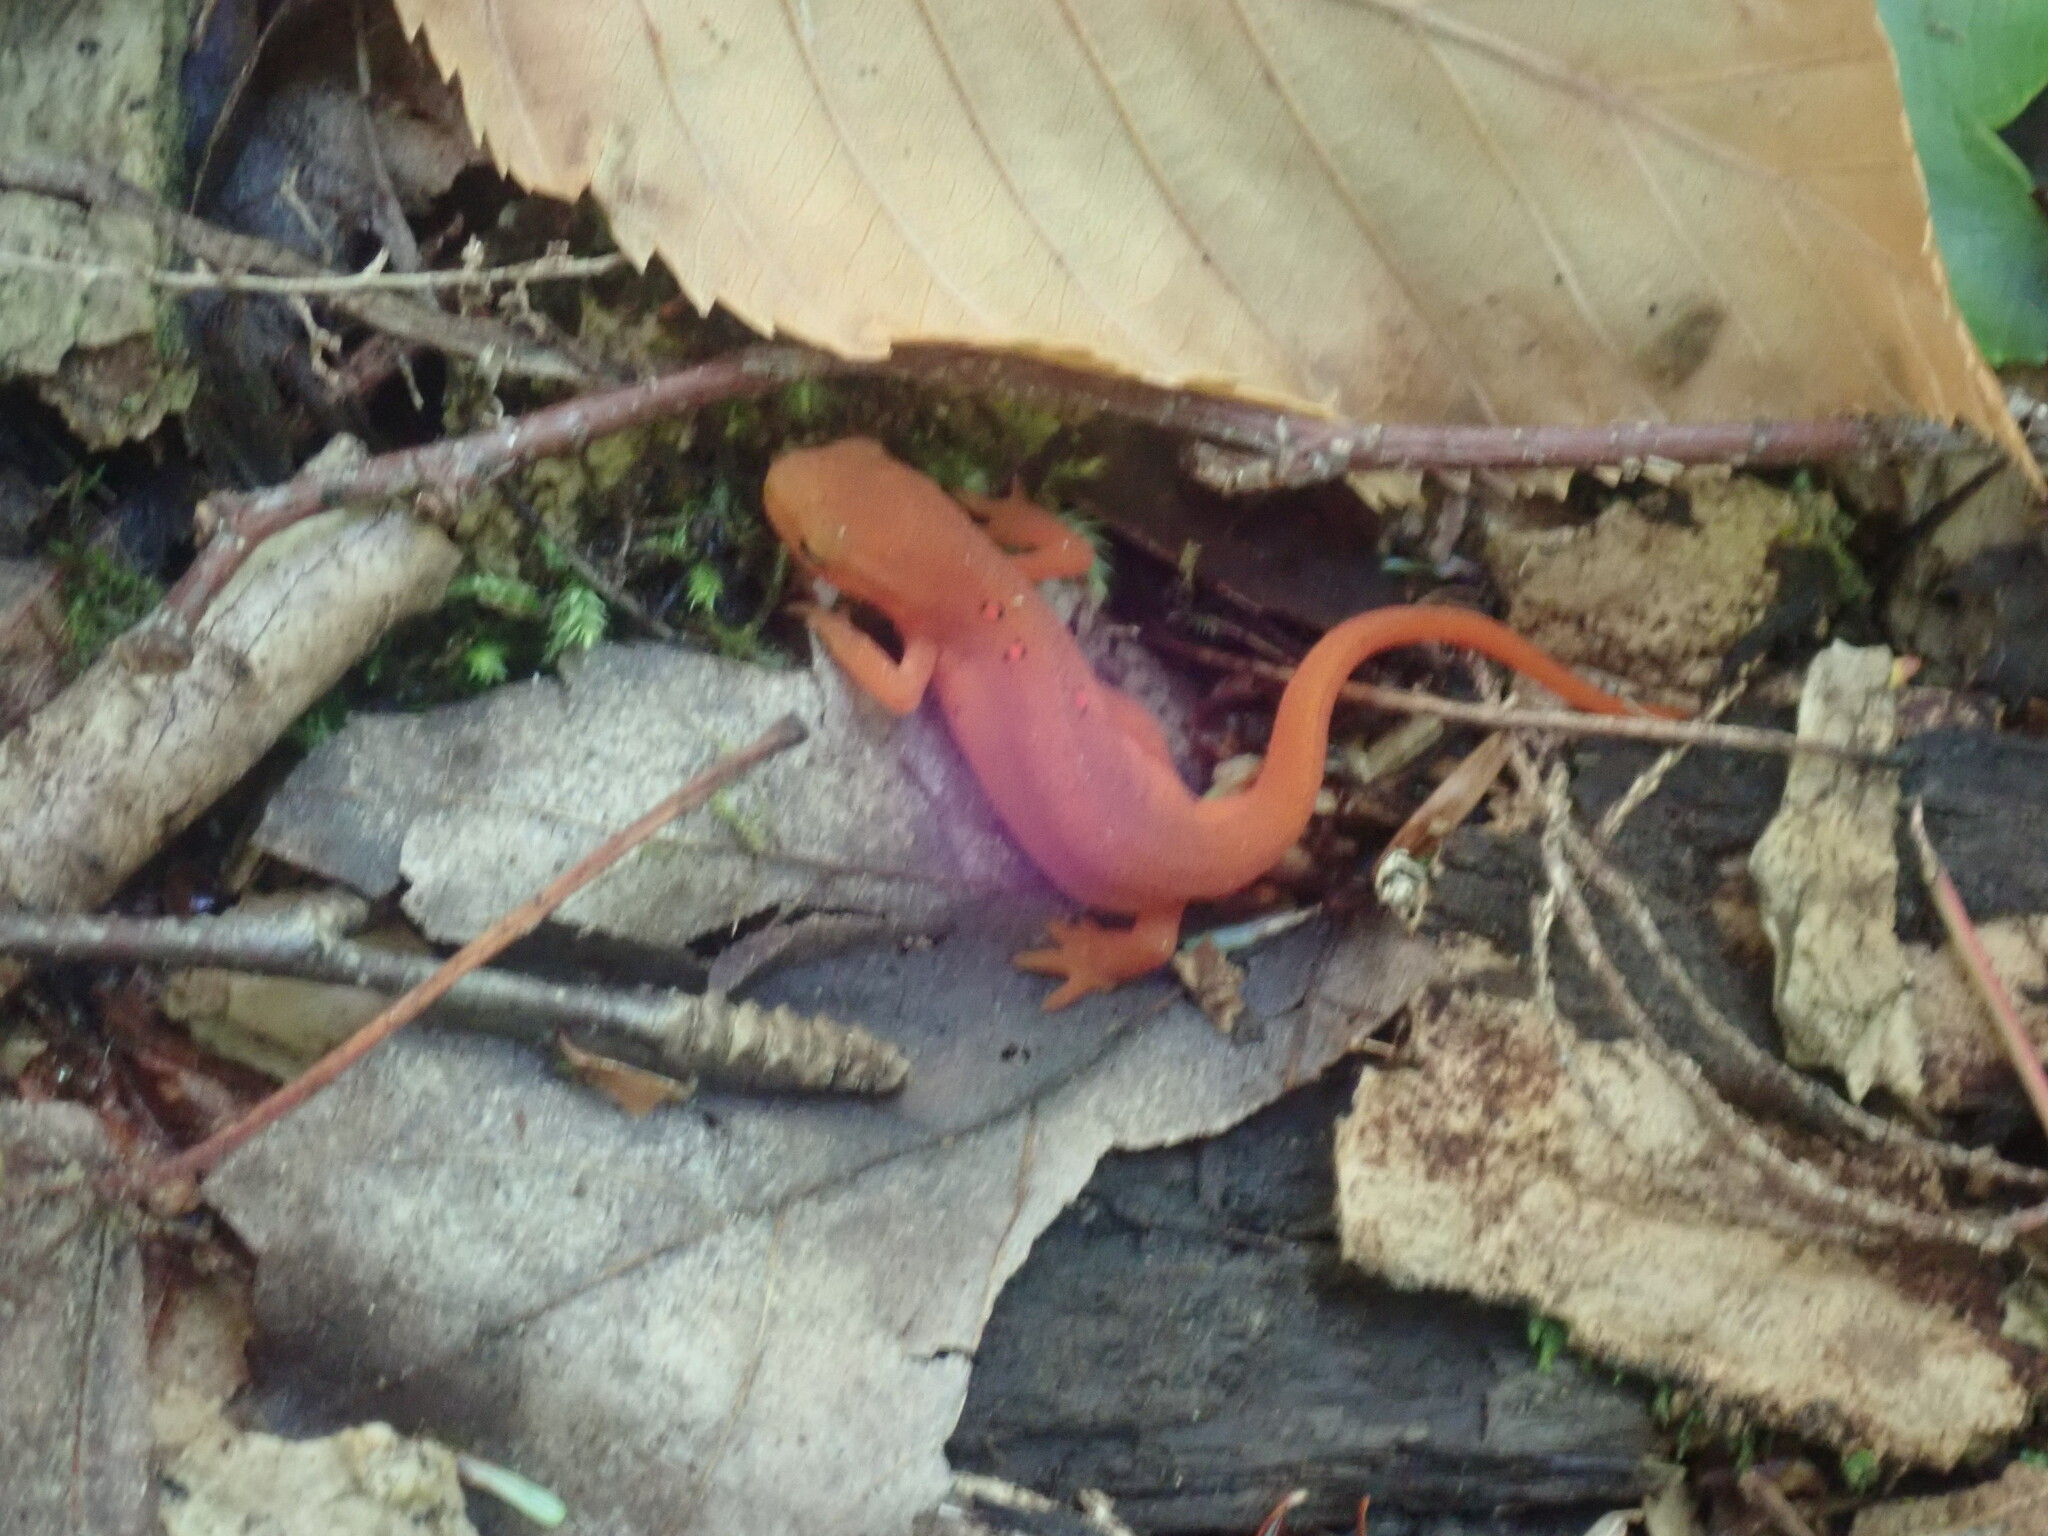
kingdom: Animalia
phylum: Chordata
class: Amphibia
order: Caudata
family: Salamandridae
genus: Notophthalmus
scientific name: Notophthalmus viridescens
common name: Eastern newt
